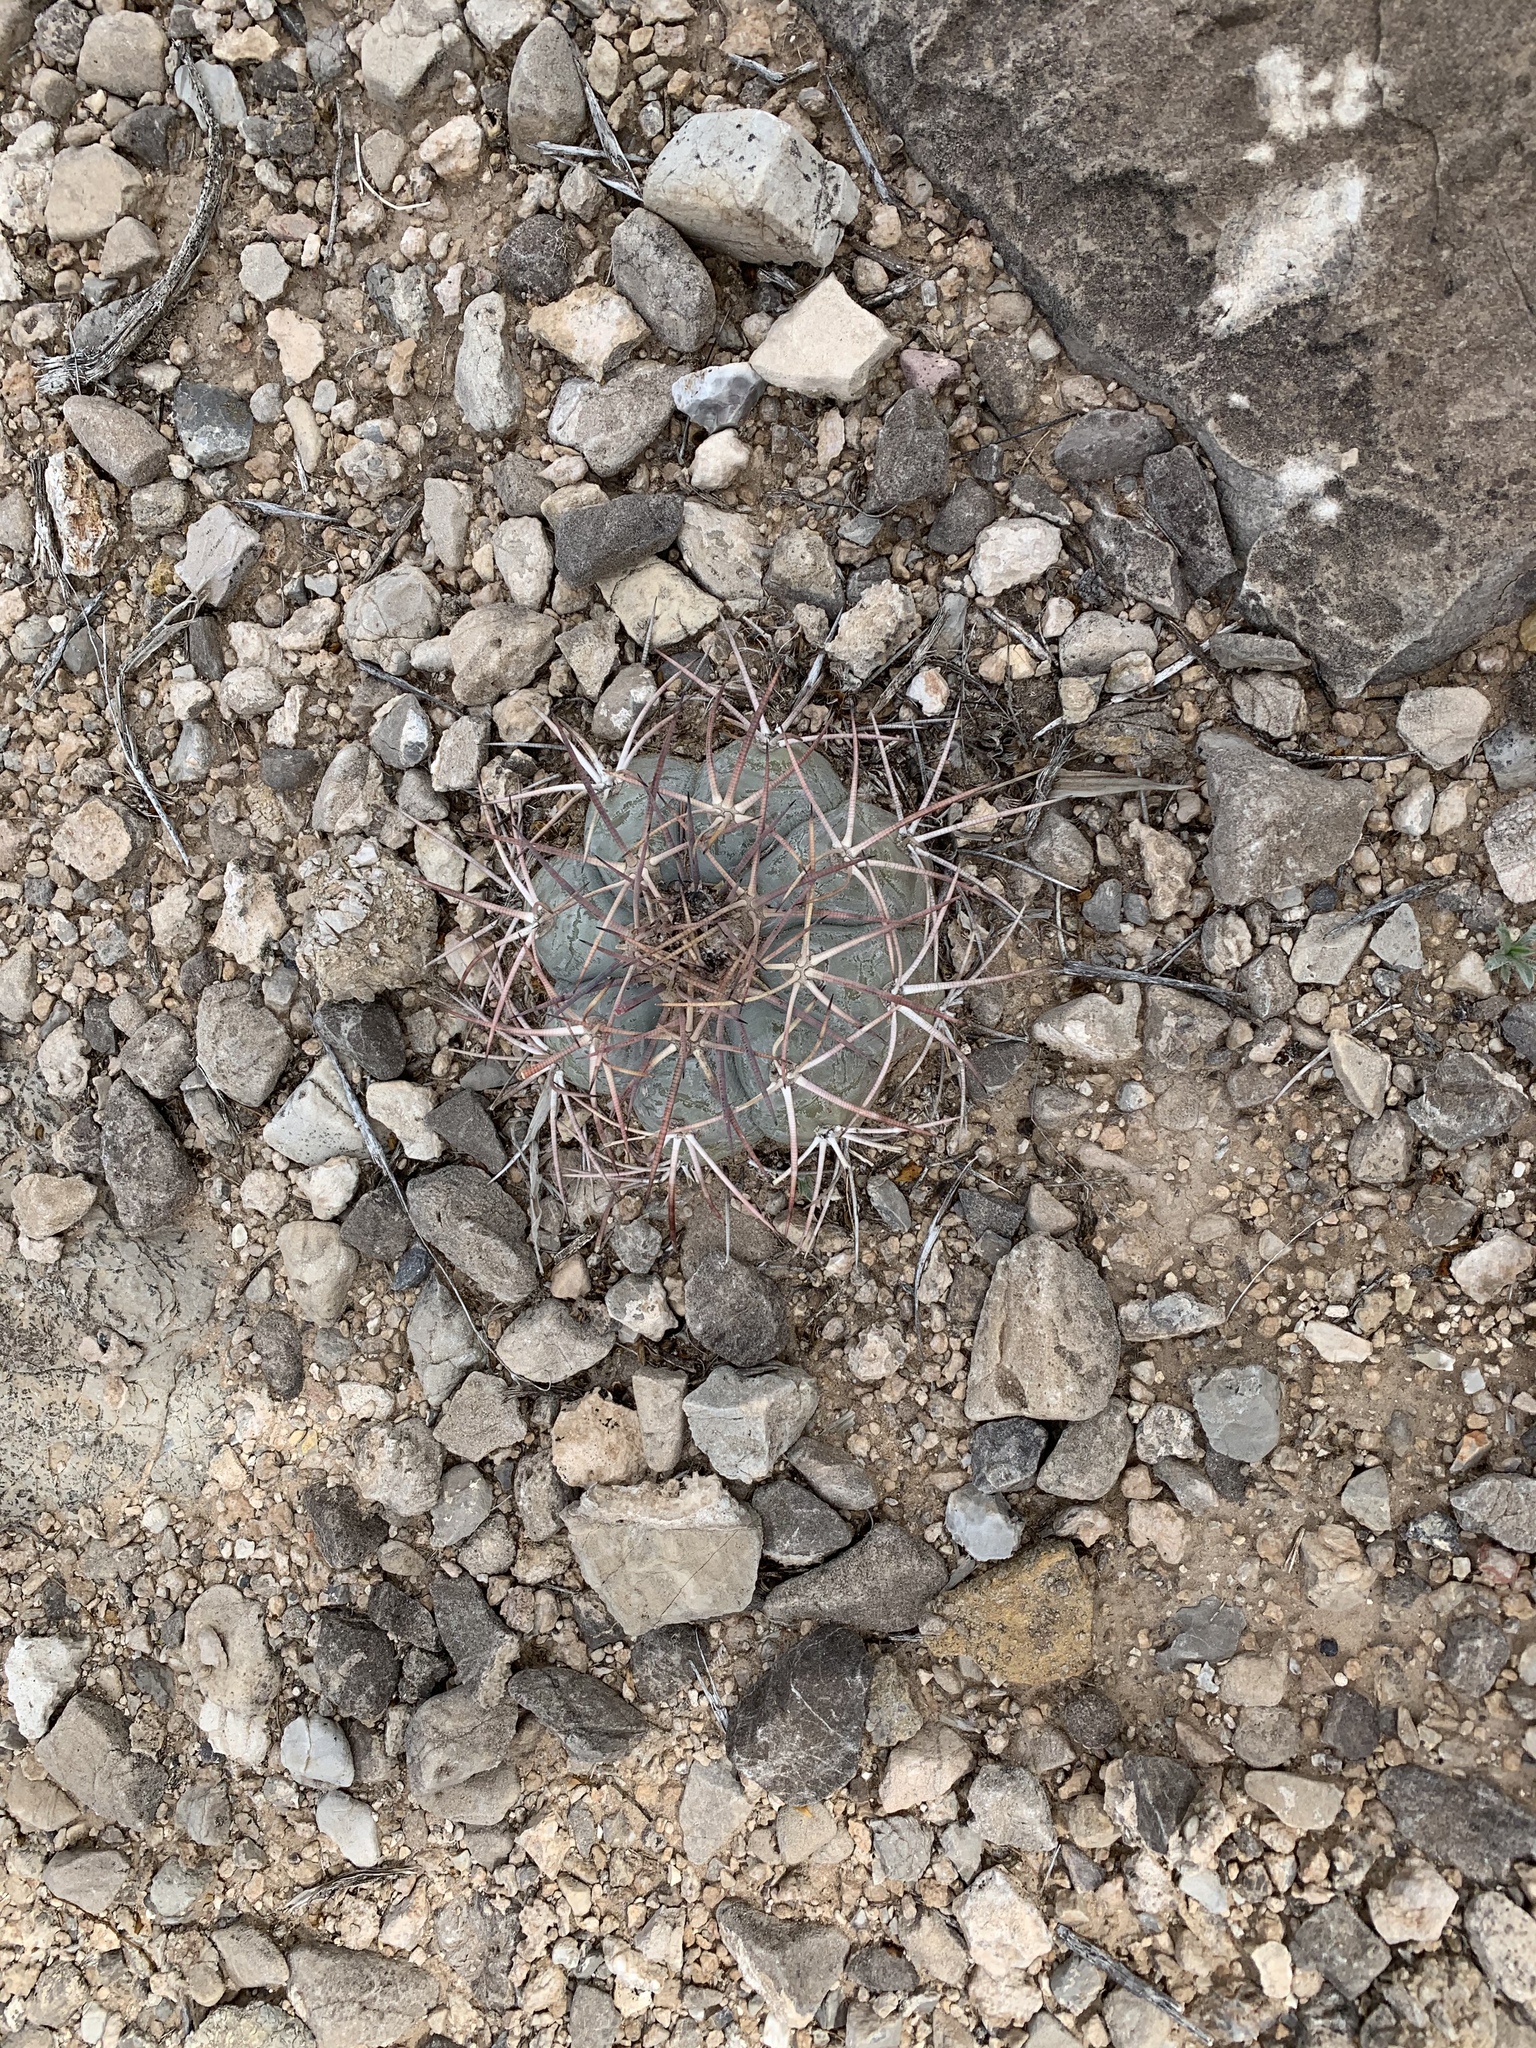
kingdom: Plantae
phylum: Tracheophyta
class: Magnoliopsida
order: Caryophyllales
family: Cactaceae
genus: Echinocactus
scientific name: Echinocactus horizonthalonius
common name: Devilshead
